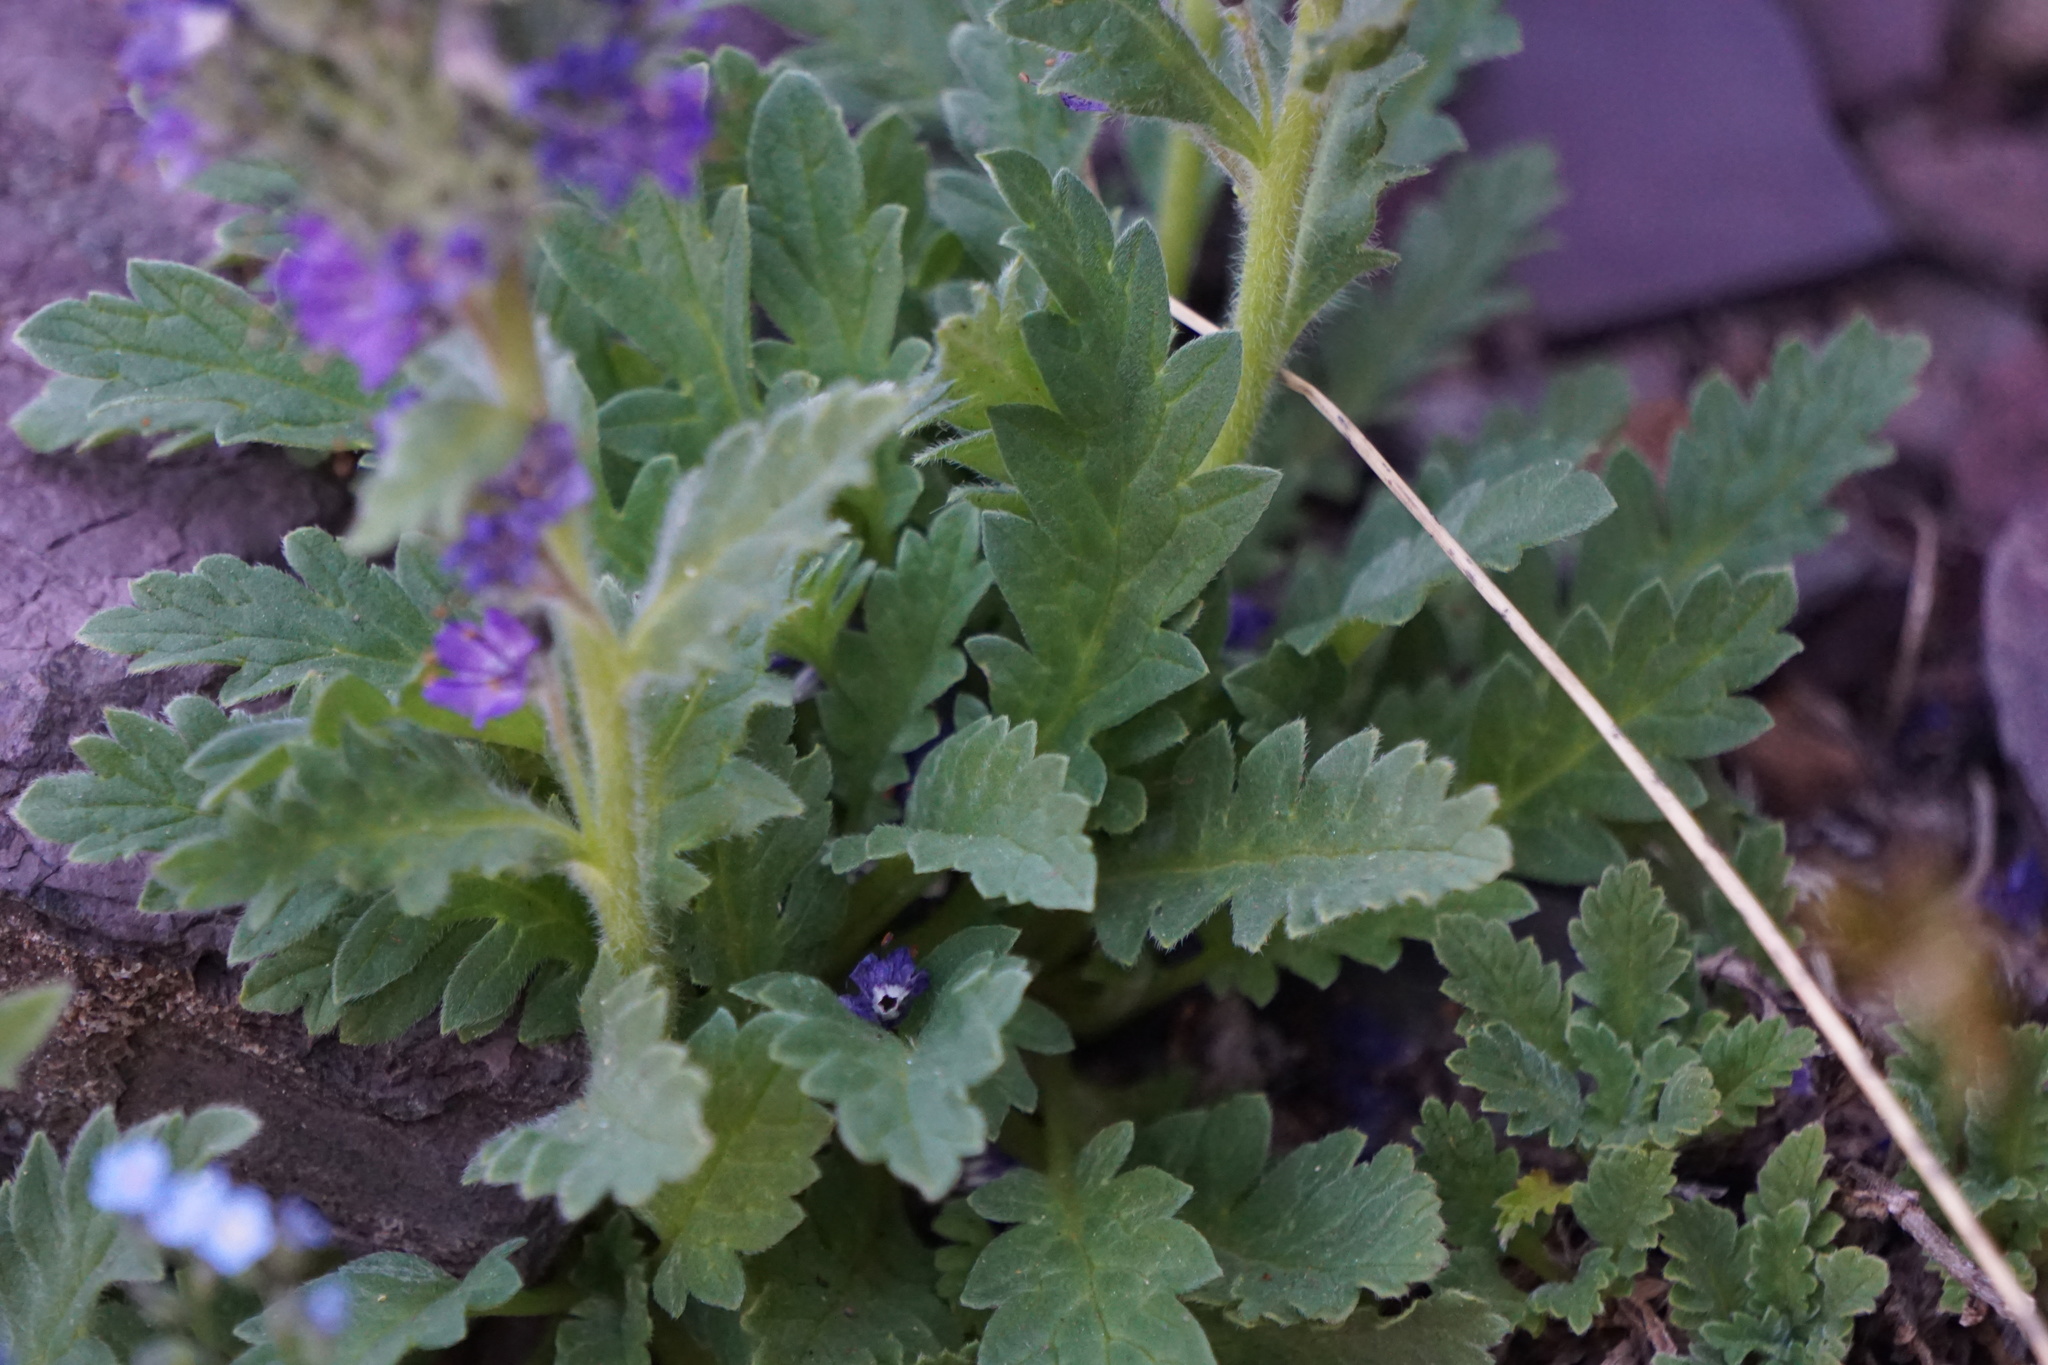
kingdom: Plantae
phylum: Tracheophyta
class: Magnoliopsida
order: Boraginales
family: Hydrophyllaceae
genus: Phacelia
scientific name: Phacelia lyallii
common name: Lyall's phacelia
